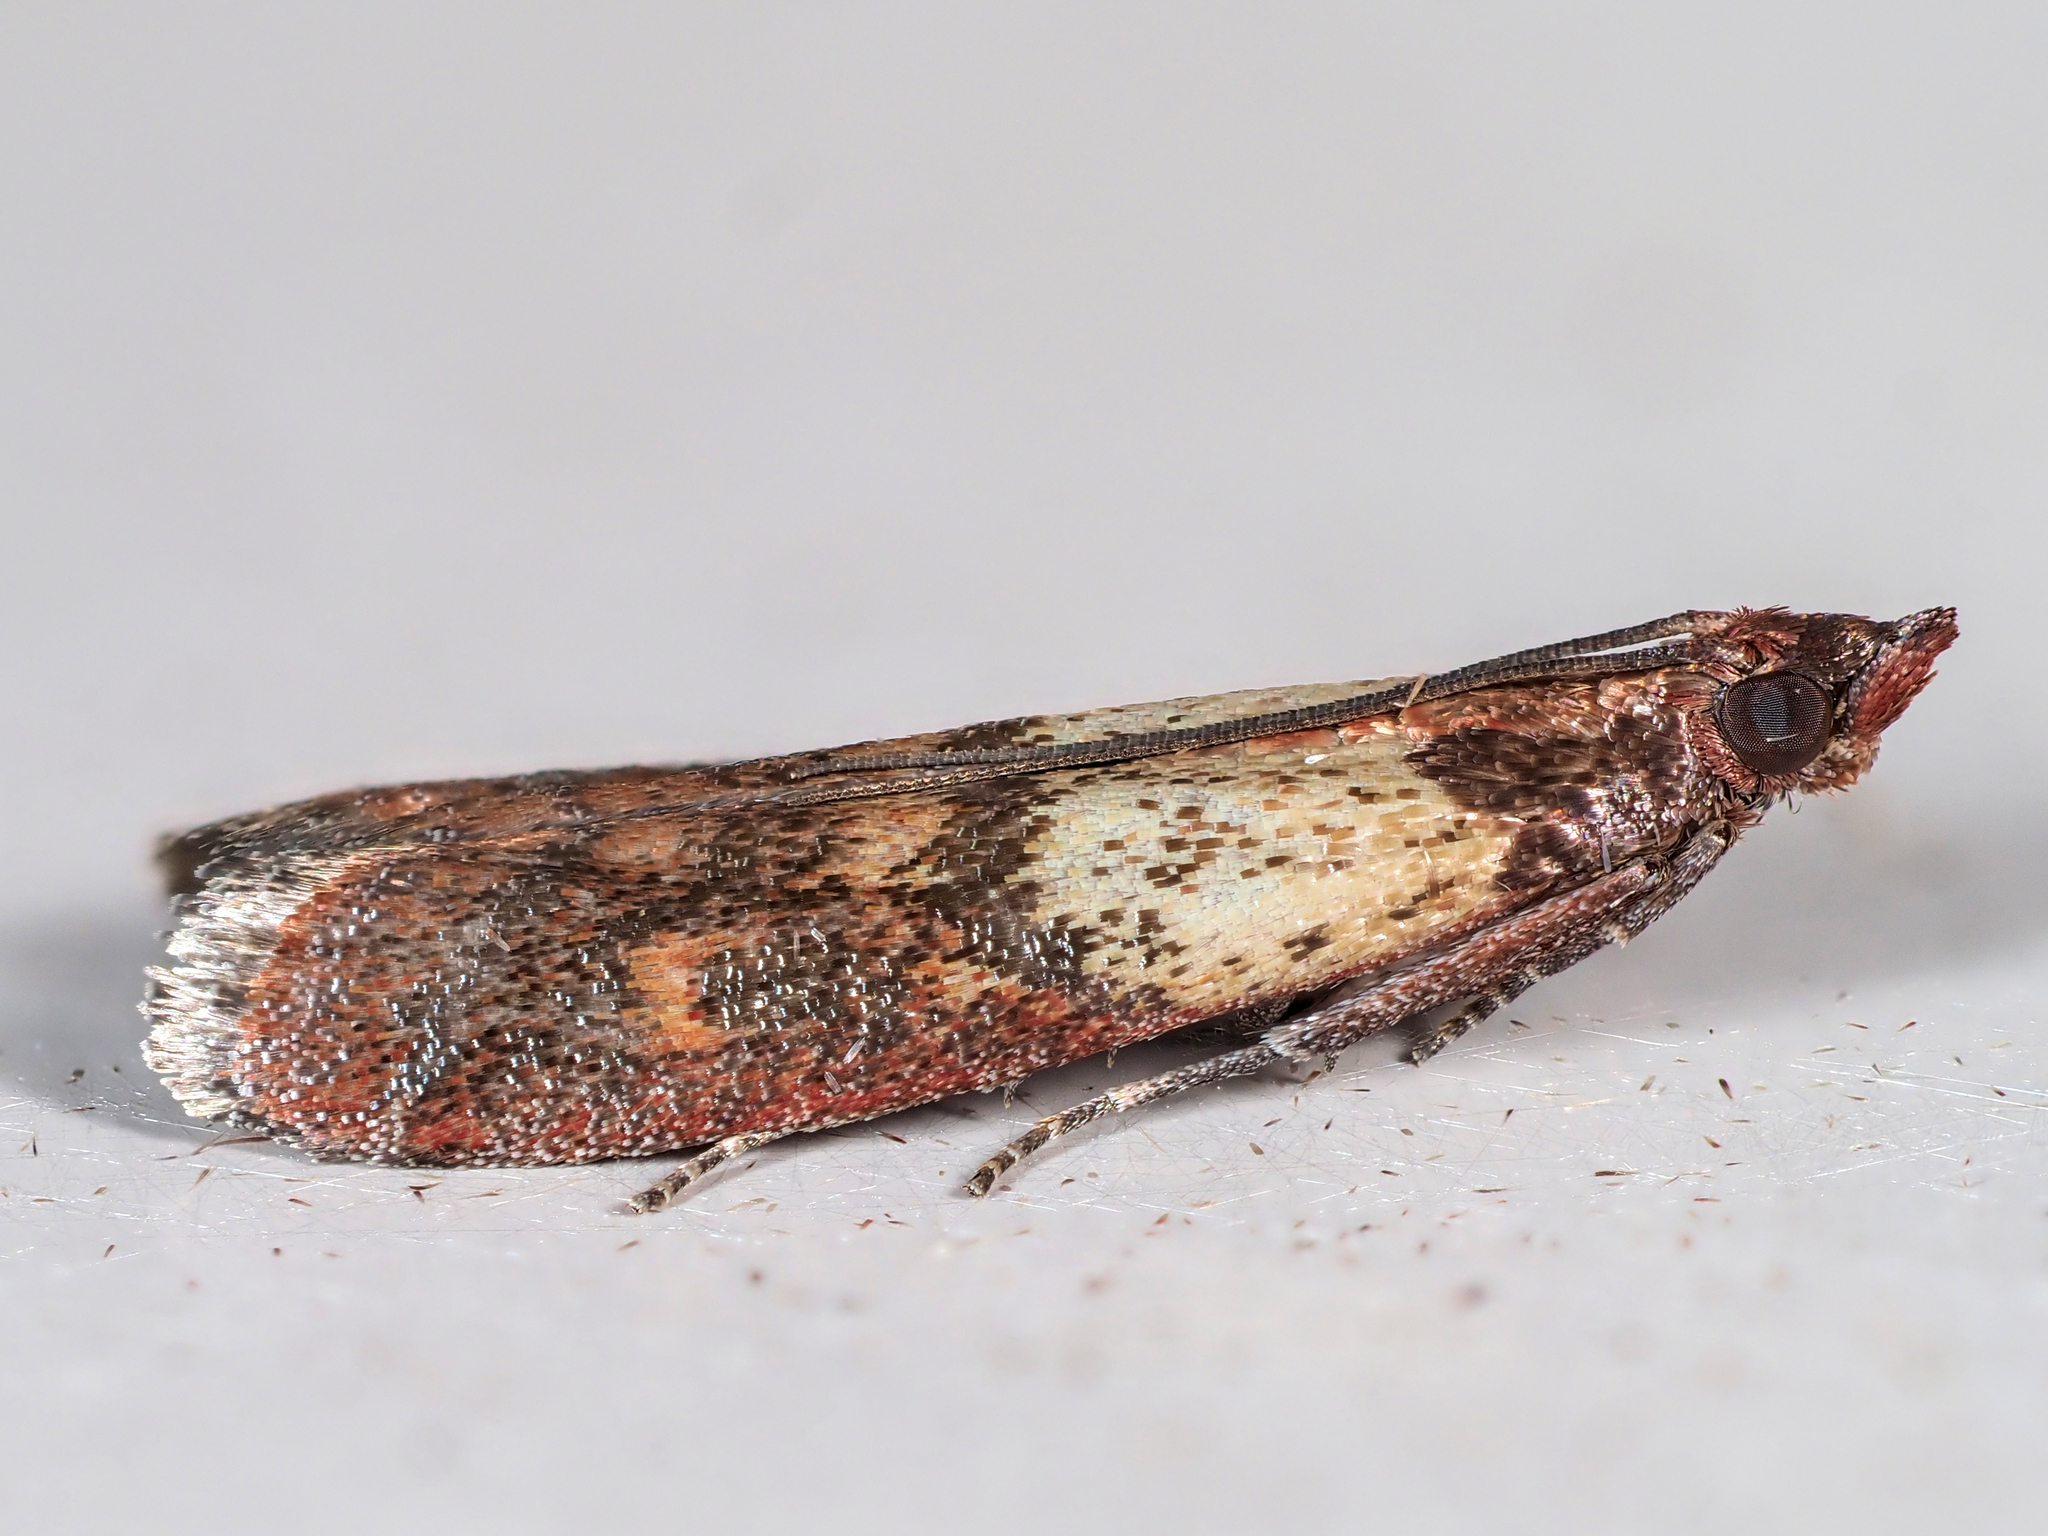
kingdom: Animalia
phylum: Arthropoda
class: Insecta
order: Lepidoptera
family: Pyralidae
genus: Plodia
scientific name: Plodia interpunctella
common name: Indian meal moth
